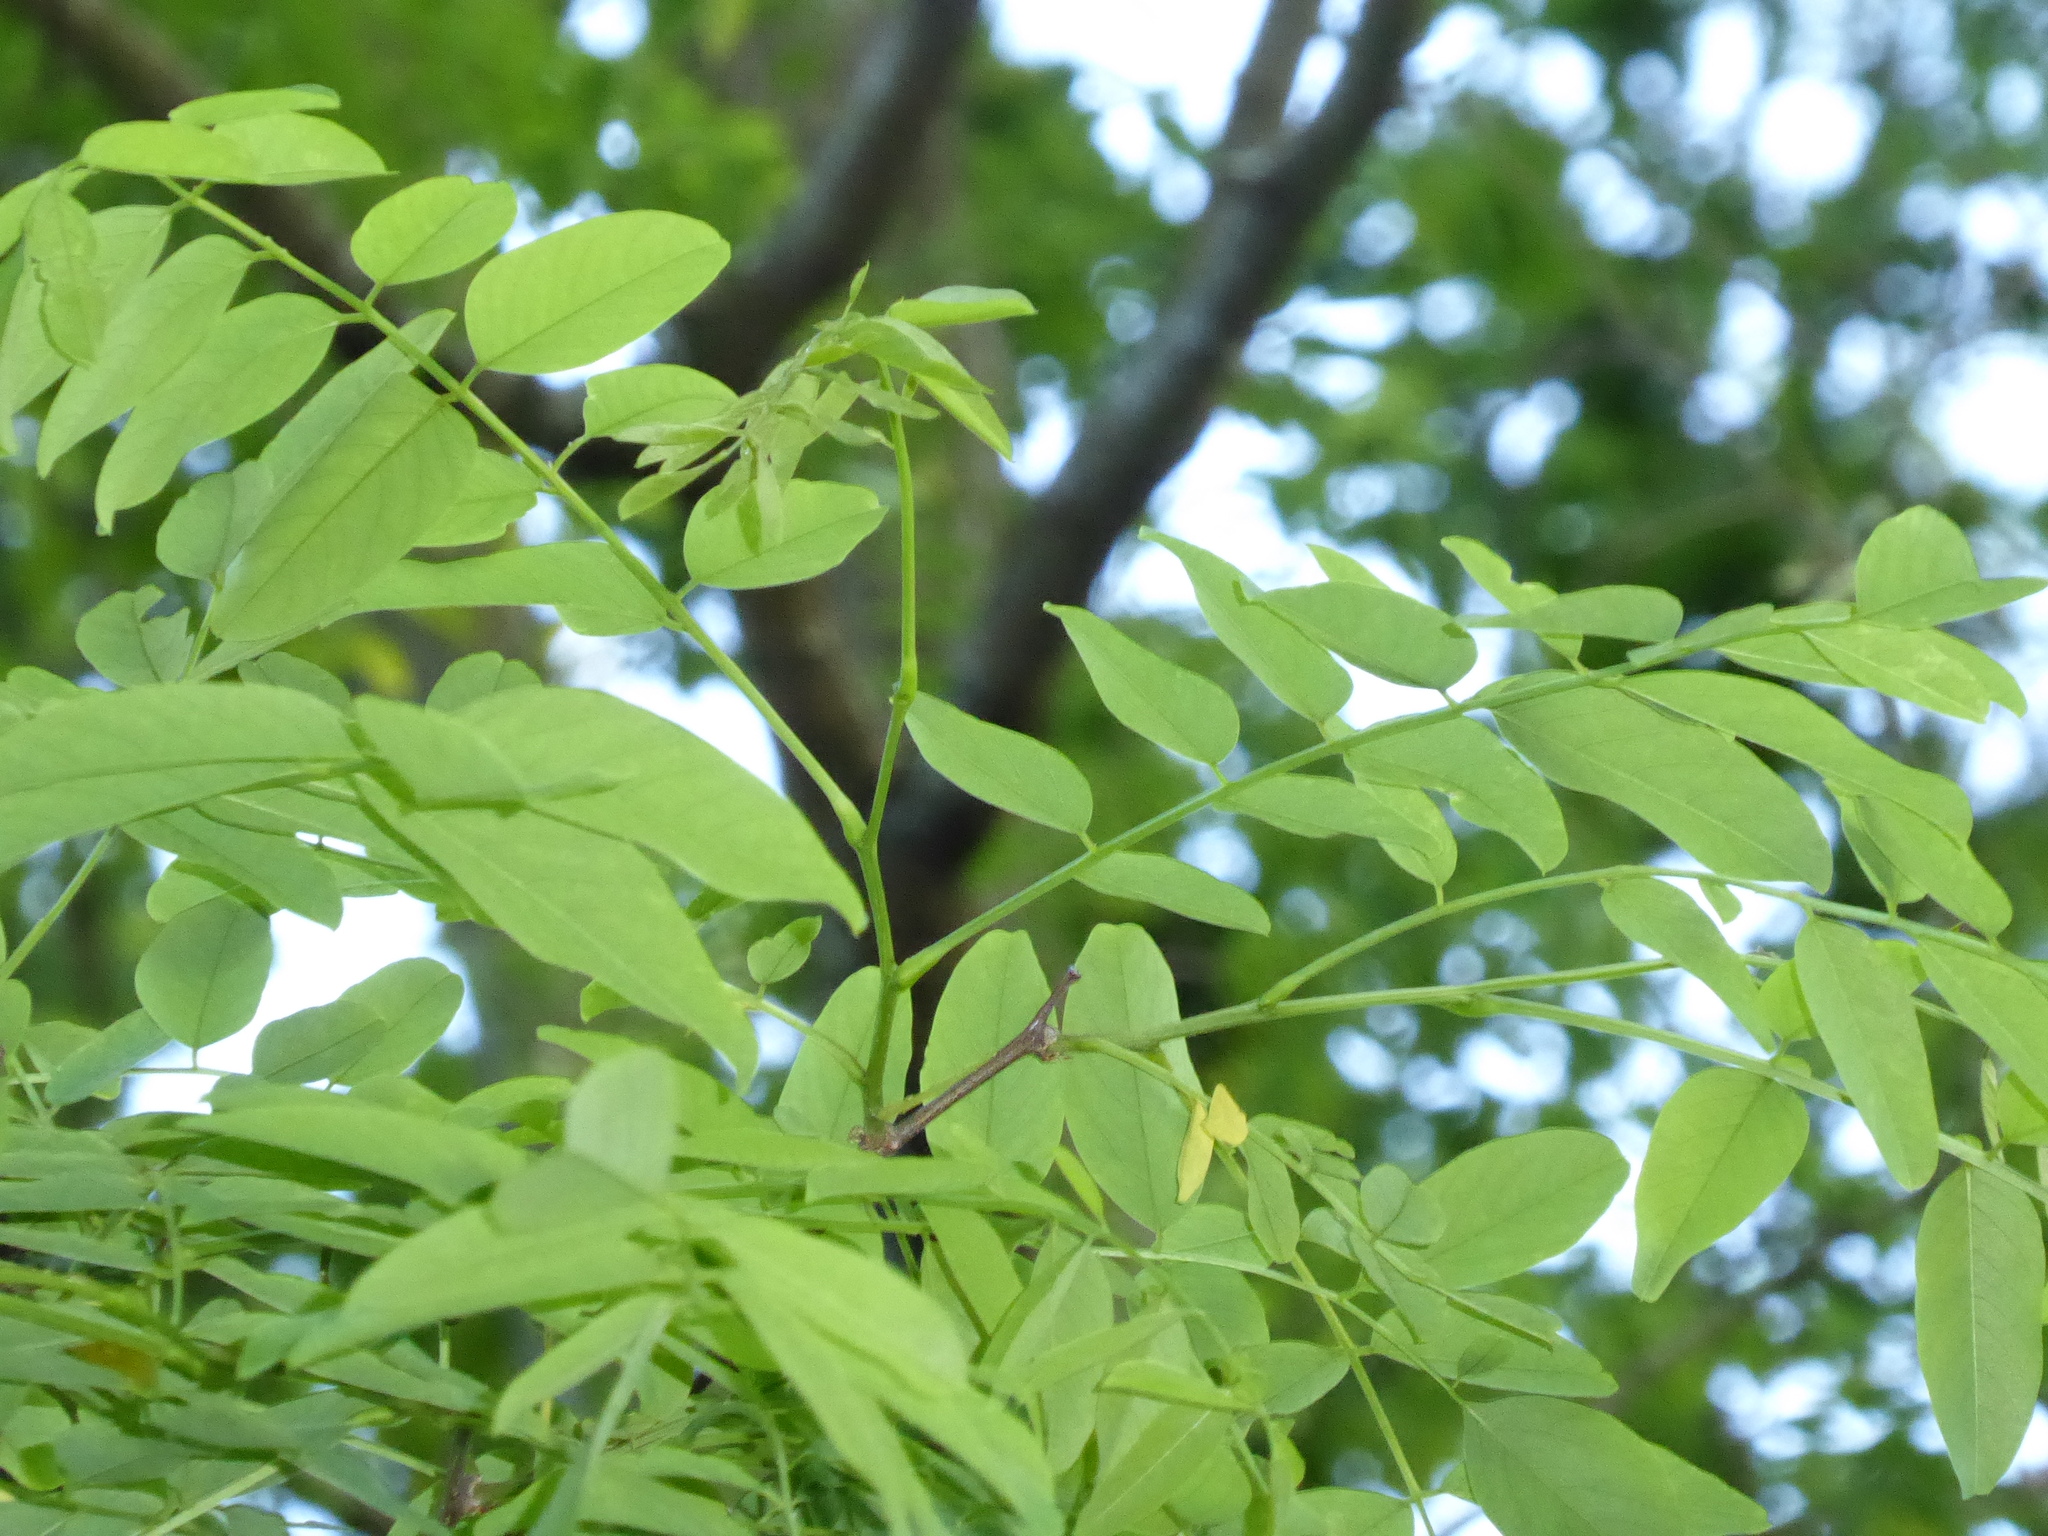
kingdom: Plantae
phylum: Tracheophyta
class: Magnoliopsida
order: Fabales
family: Fabaceae
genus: Robinia
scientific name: Robinia pseudoacacia
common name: Black locust
